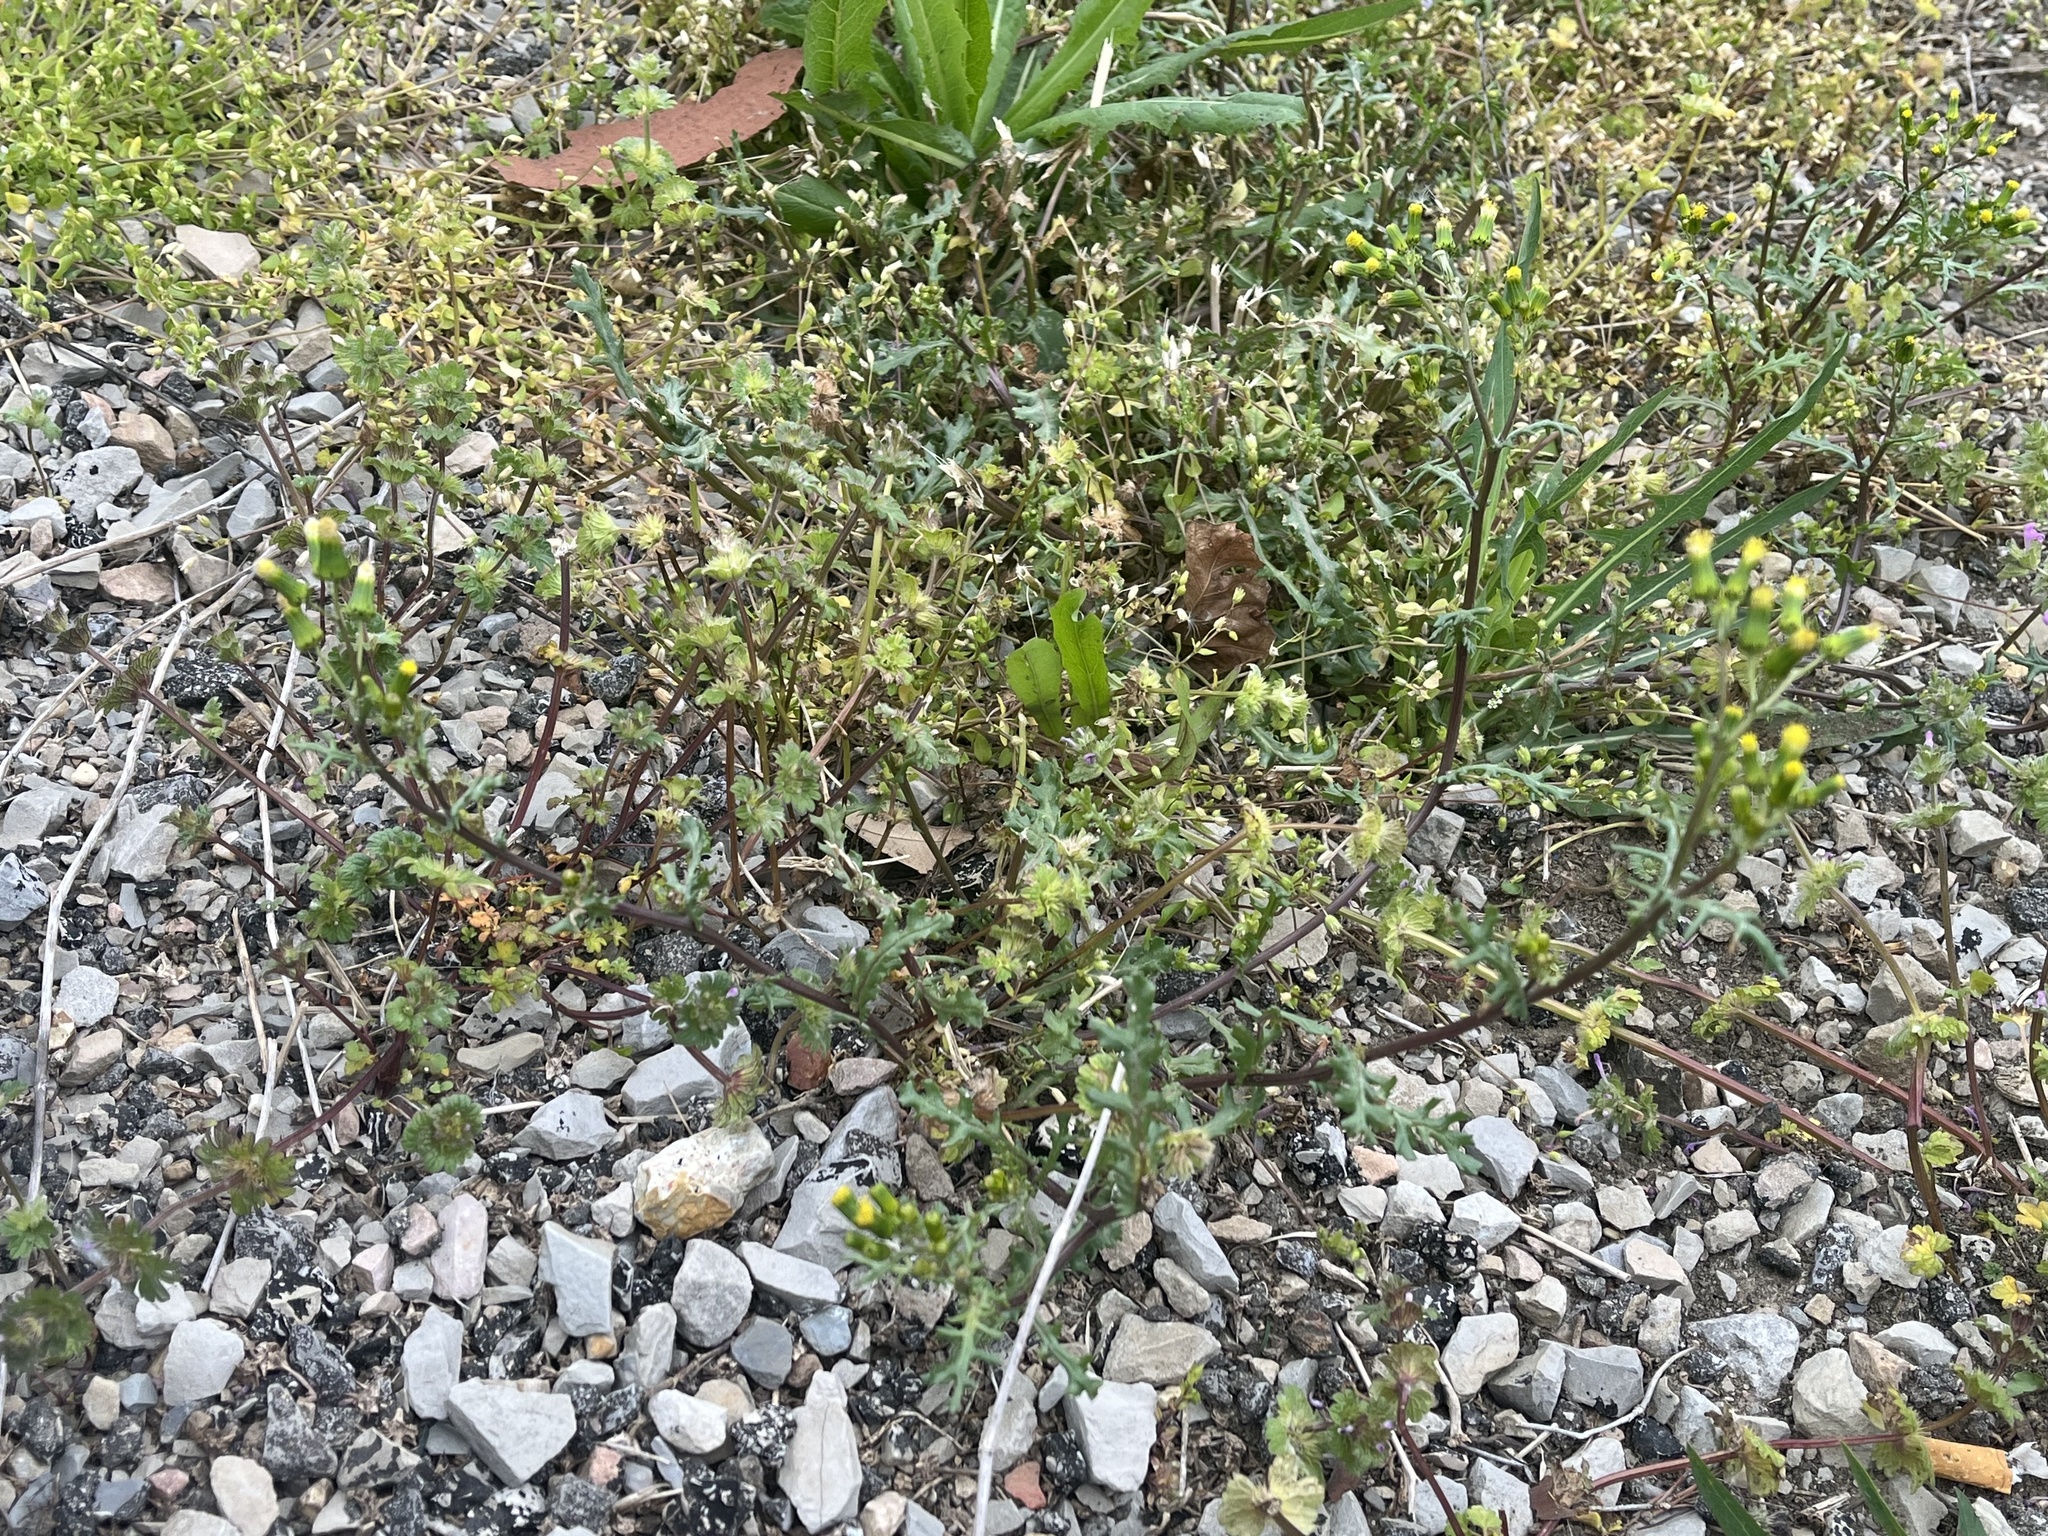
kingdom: Plantae
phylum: Tracheophyta
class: Magnoliopsida
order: Asterales
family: Asteraceae
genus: Senecio
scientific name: Senecio vulgaris
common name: Old-man-in-the-spring
